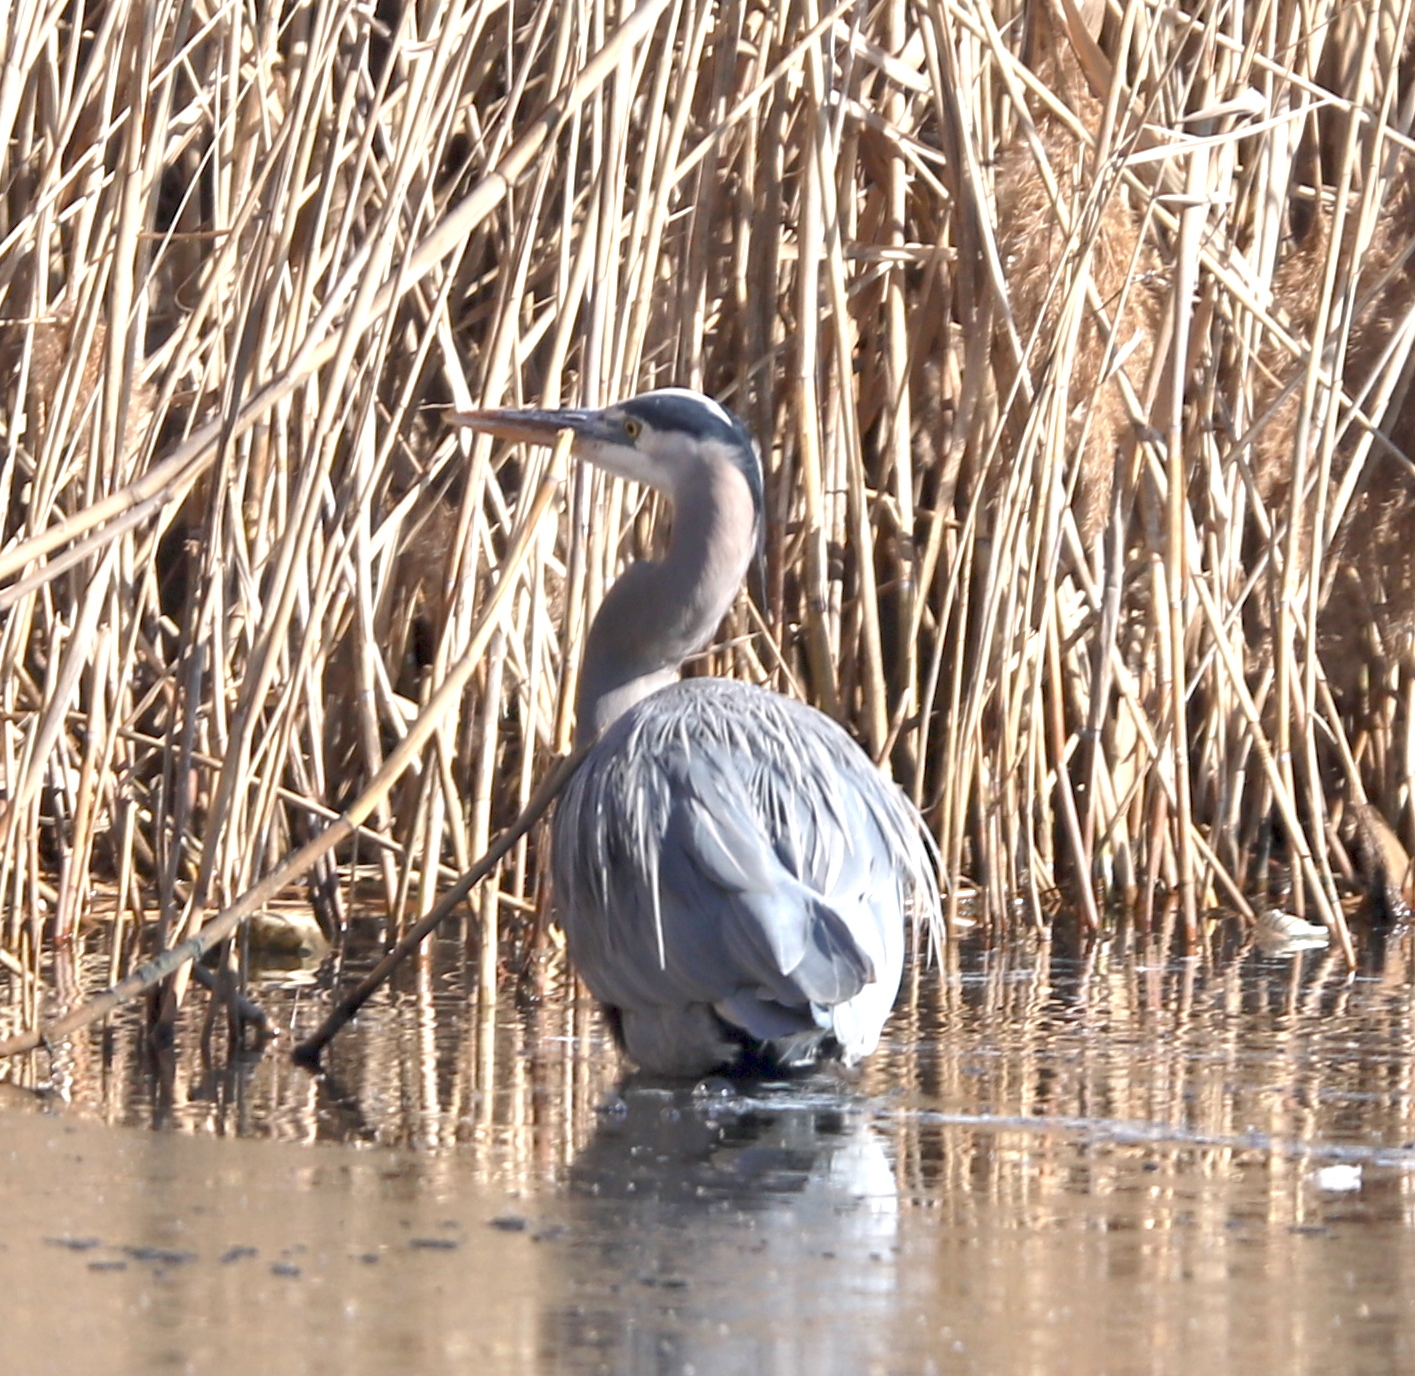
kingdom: Animalia
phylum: Chordata
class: Aves
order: Pelecaniformes
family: Ardeidae
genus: Ardea
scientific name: Ardea herodias
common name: Great blue heron
